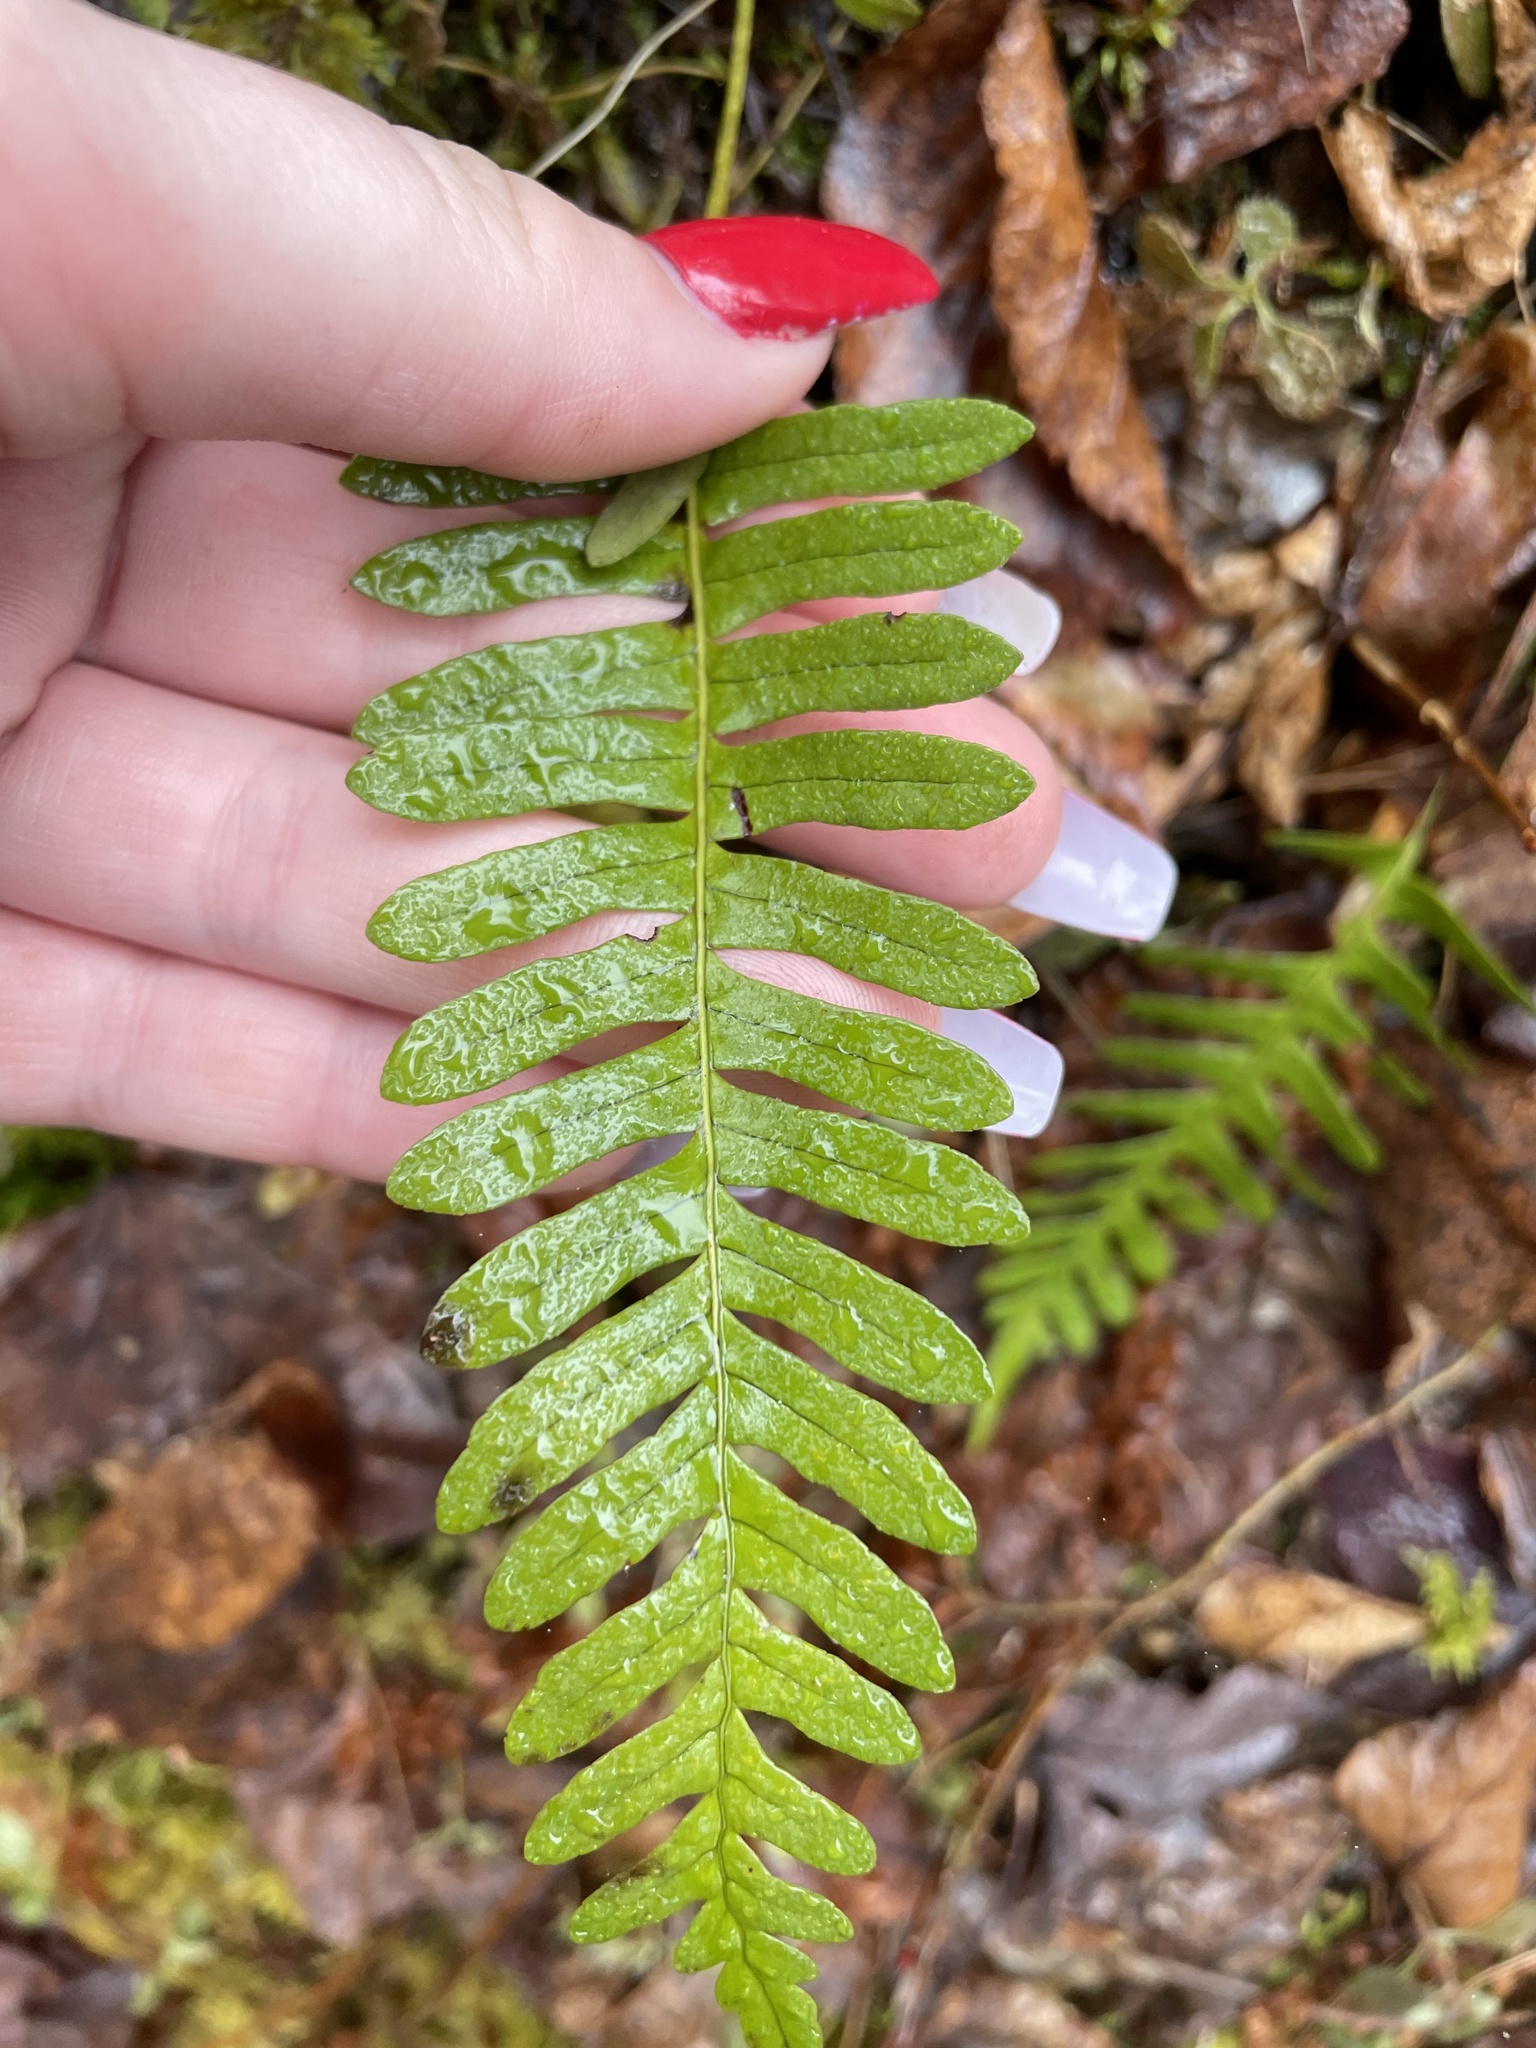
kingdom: Plantae
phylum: Tracheophyta
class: Polypodiopsida
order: Polypodiales
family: Polypodiaceae
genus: Polypodium
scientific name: Polypodium virginianum
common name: American wall fern
